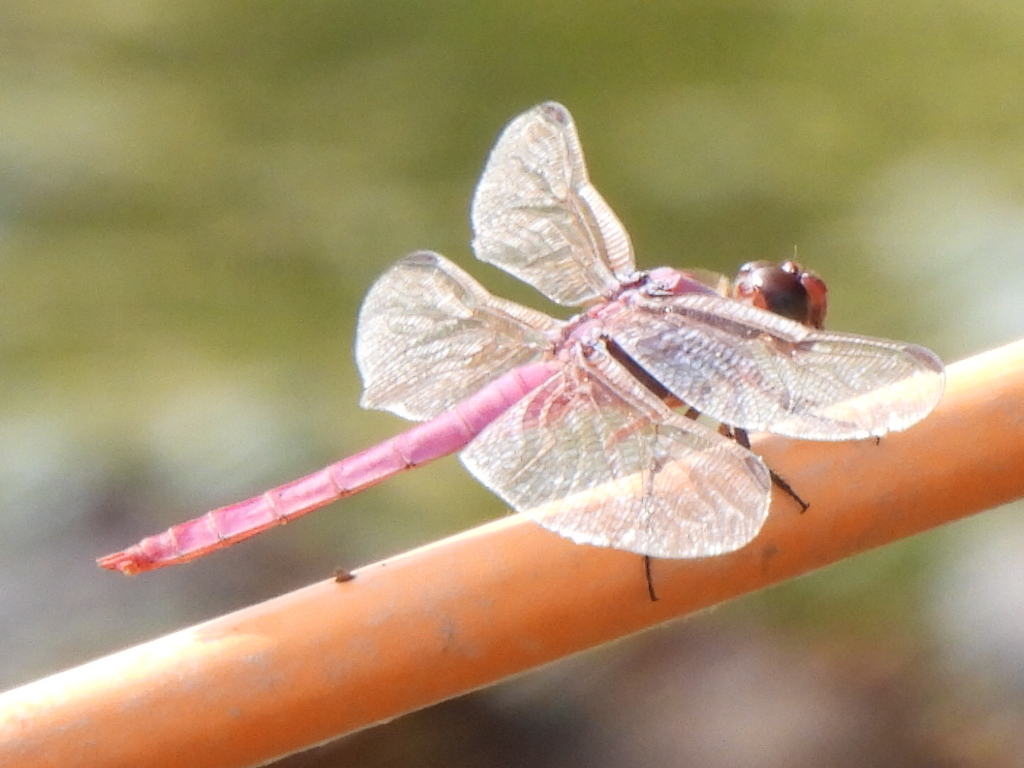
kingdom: Animalia
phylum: Arthropoda
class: Insecta
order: Odonata
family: Libellulidae
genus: Orthemis
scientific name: Orthemis ferruginea
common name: Roseate skimmer
